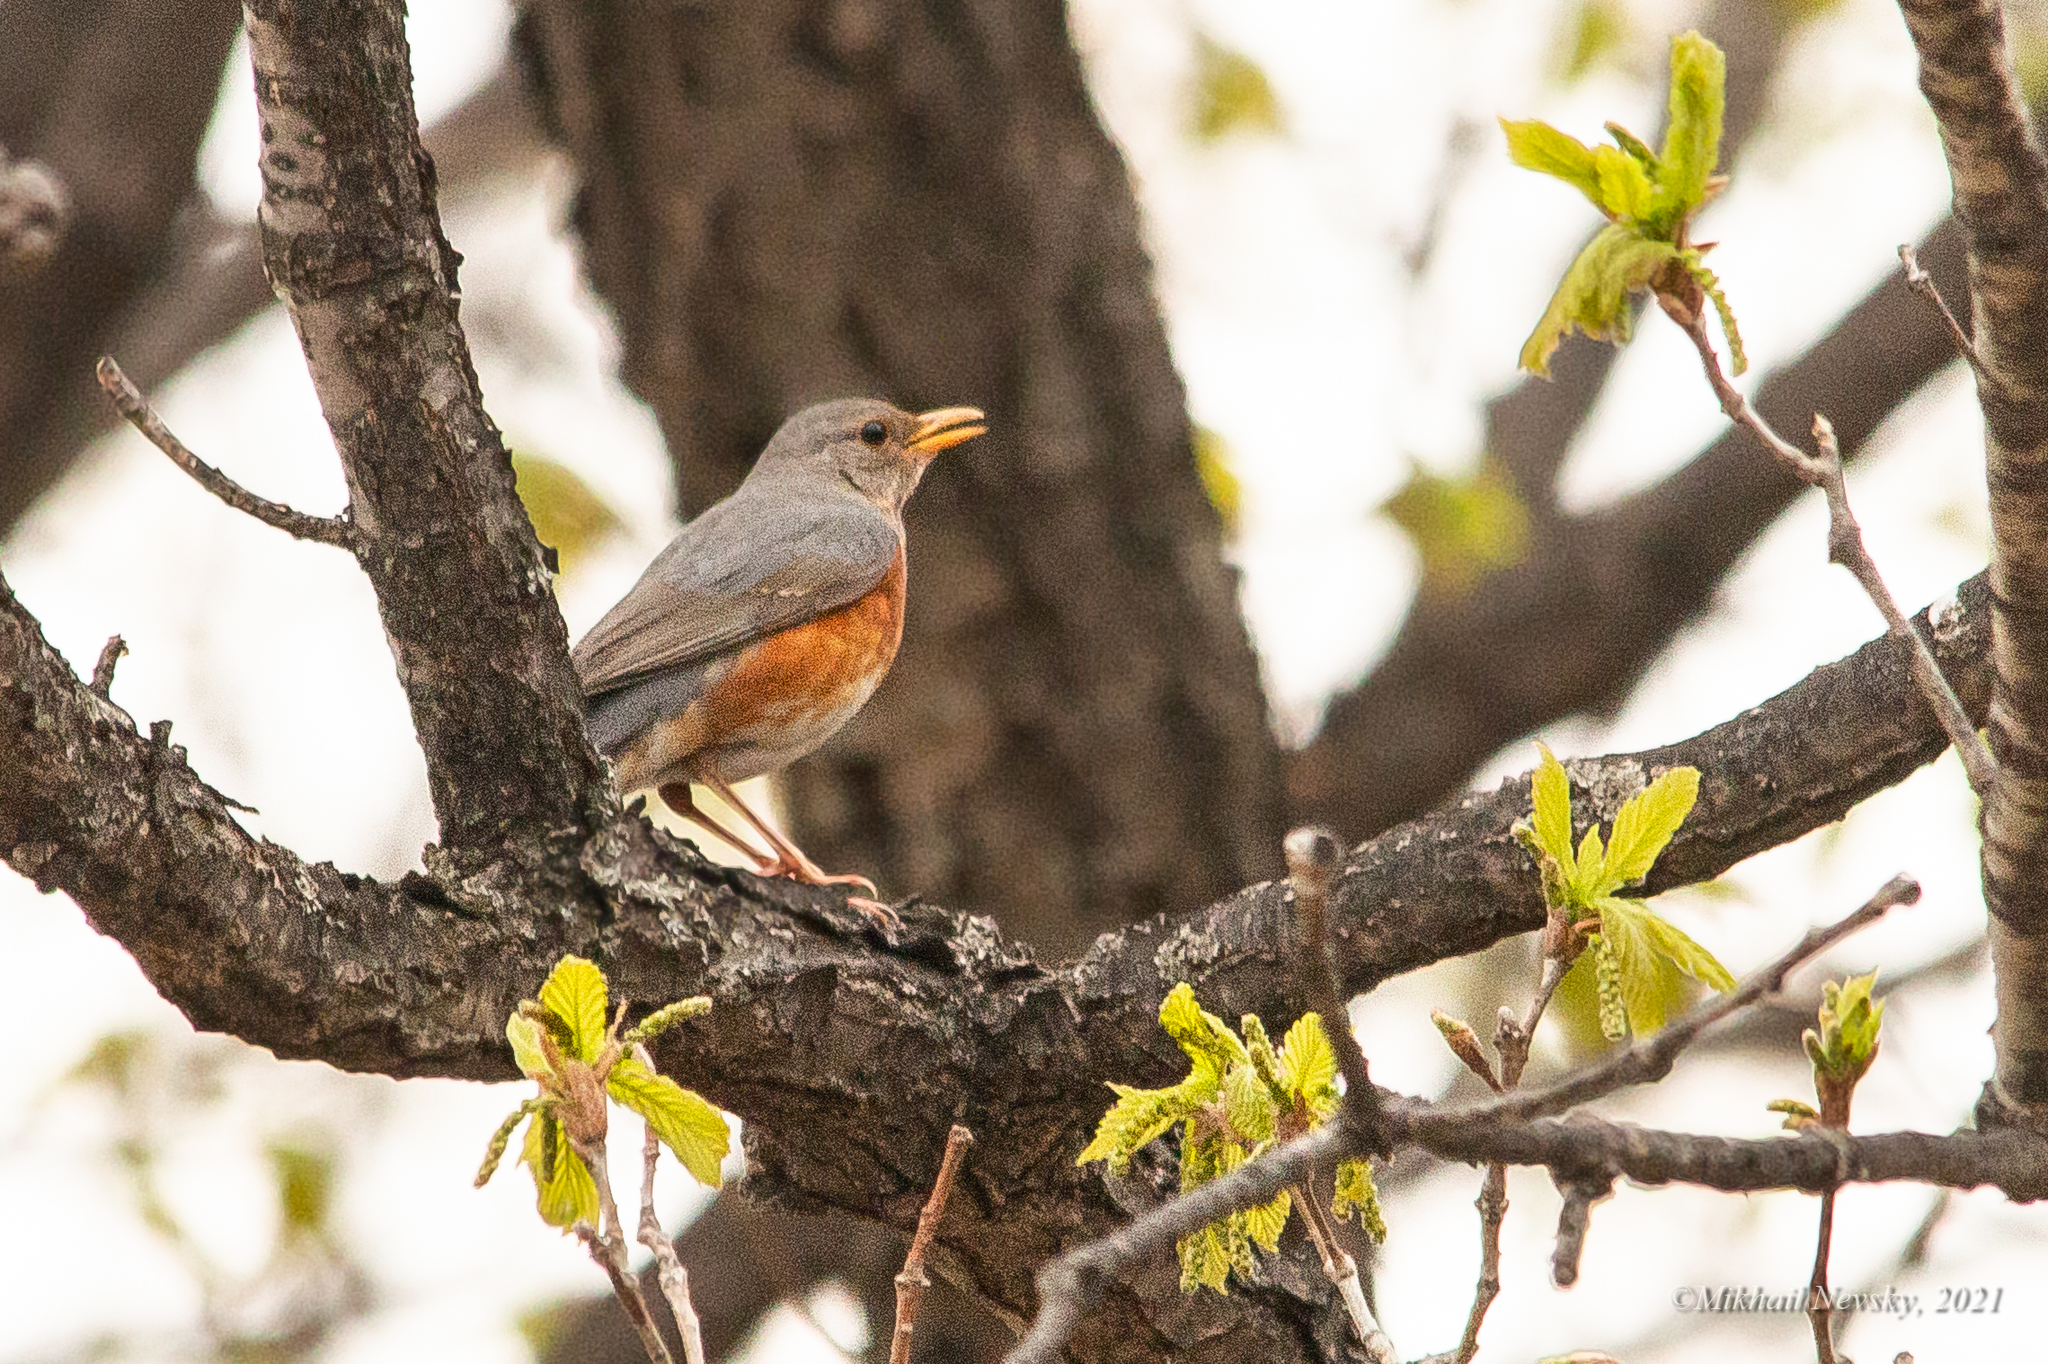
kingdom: Animalia
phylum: Chordata
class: Aves
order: Passeriformes
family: Turdidae
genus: Turdus
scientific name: Turdus hortulorum
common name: Grey-backed thrush
